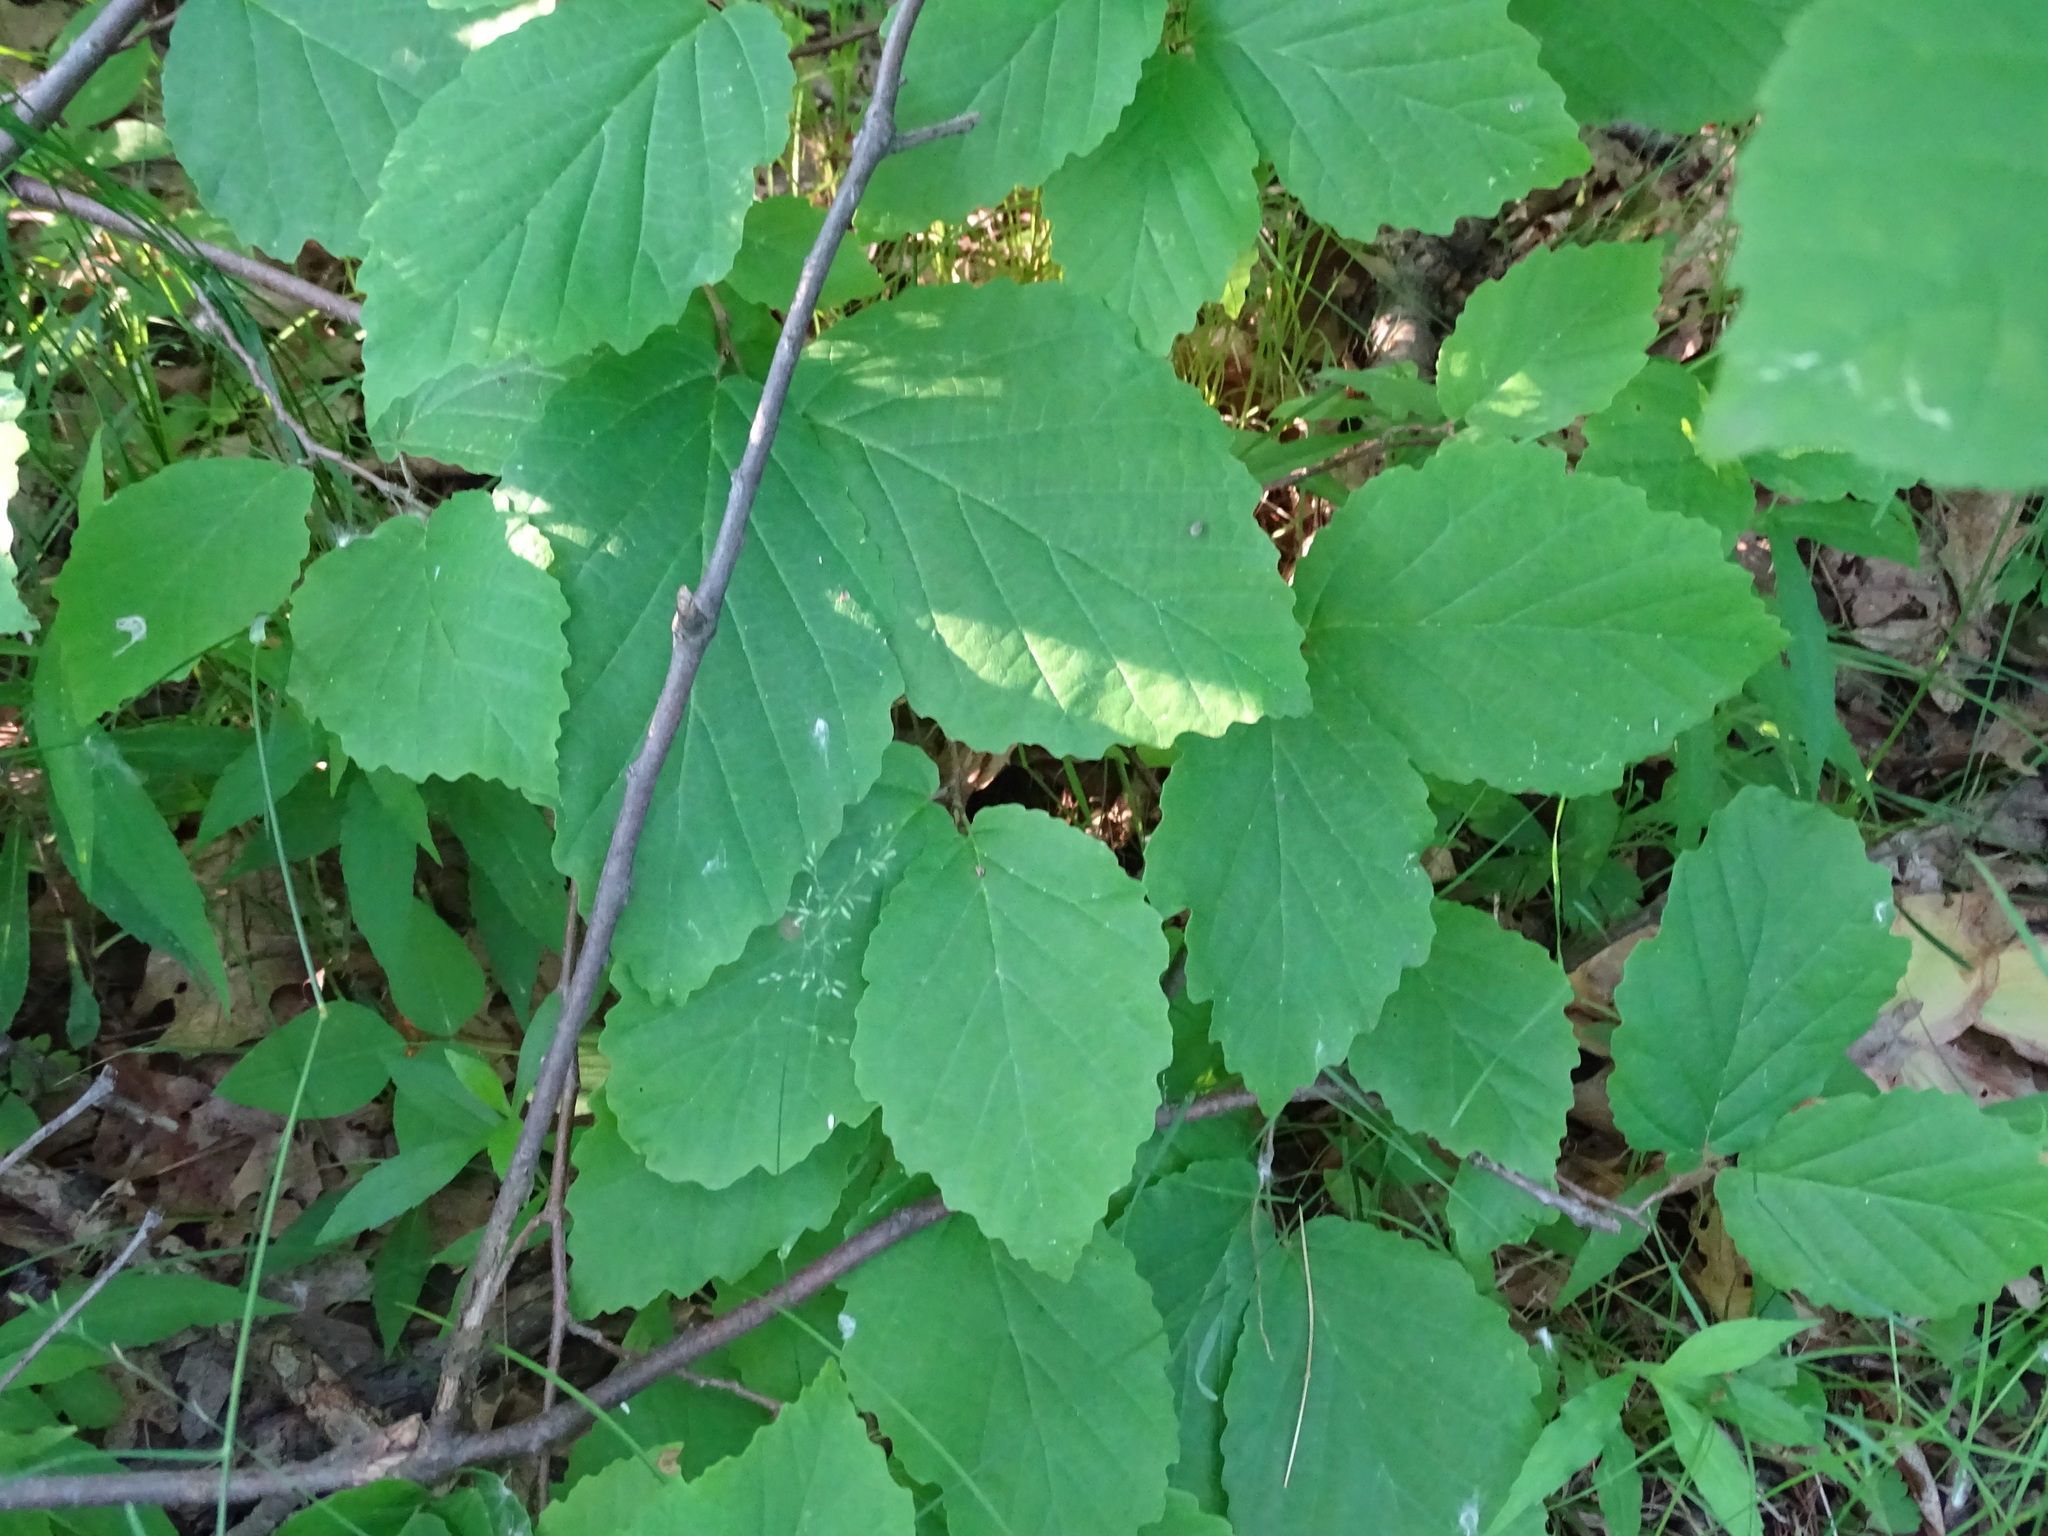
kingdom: Plantae
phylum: Tracheophyta
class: Magnoliopsida
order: Saxifragales
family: Hamamelidaceae
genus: Hamamelis
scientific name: Hamamelis virginiana
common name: Witch-hazel
